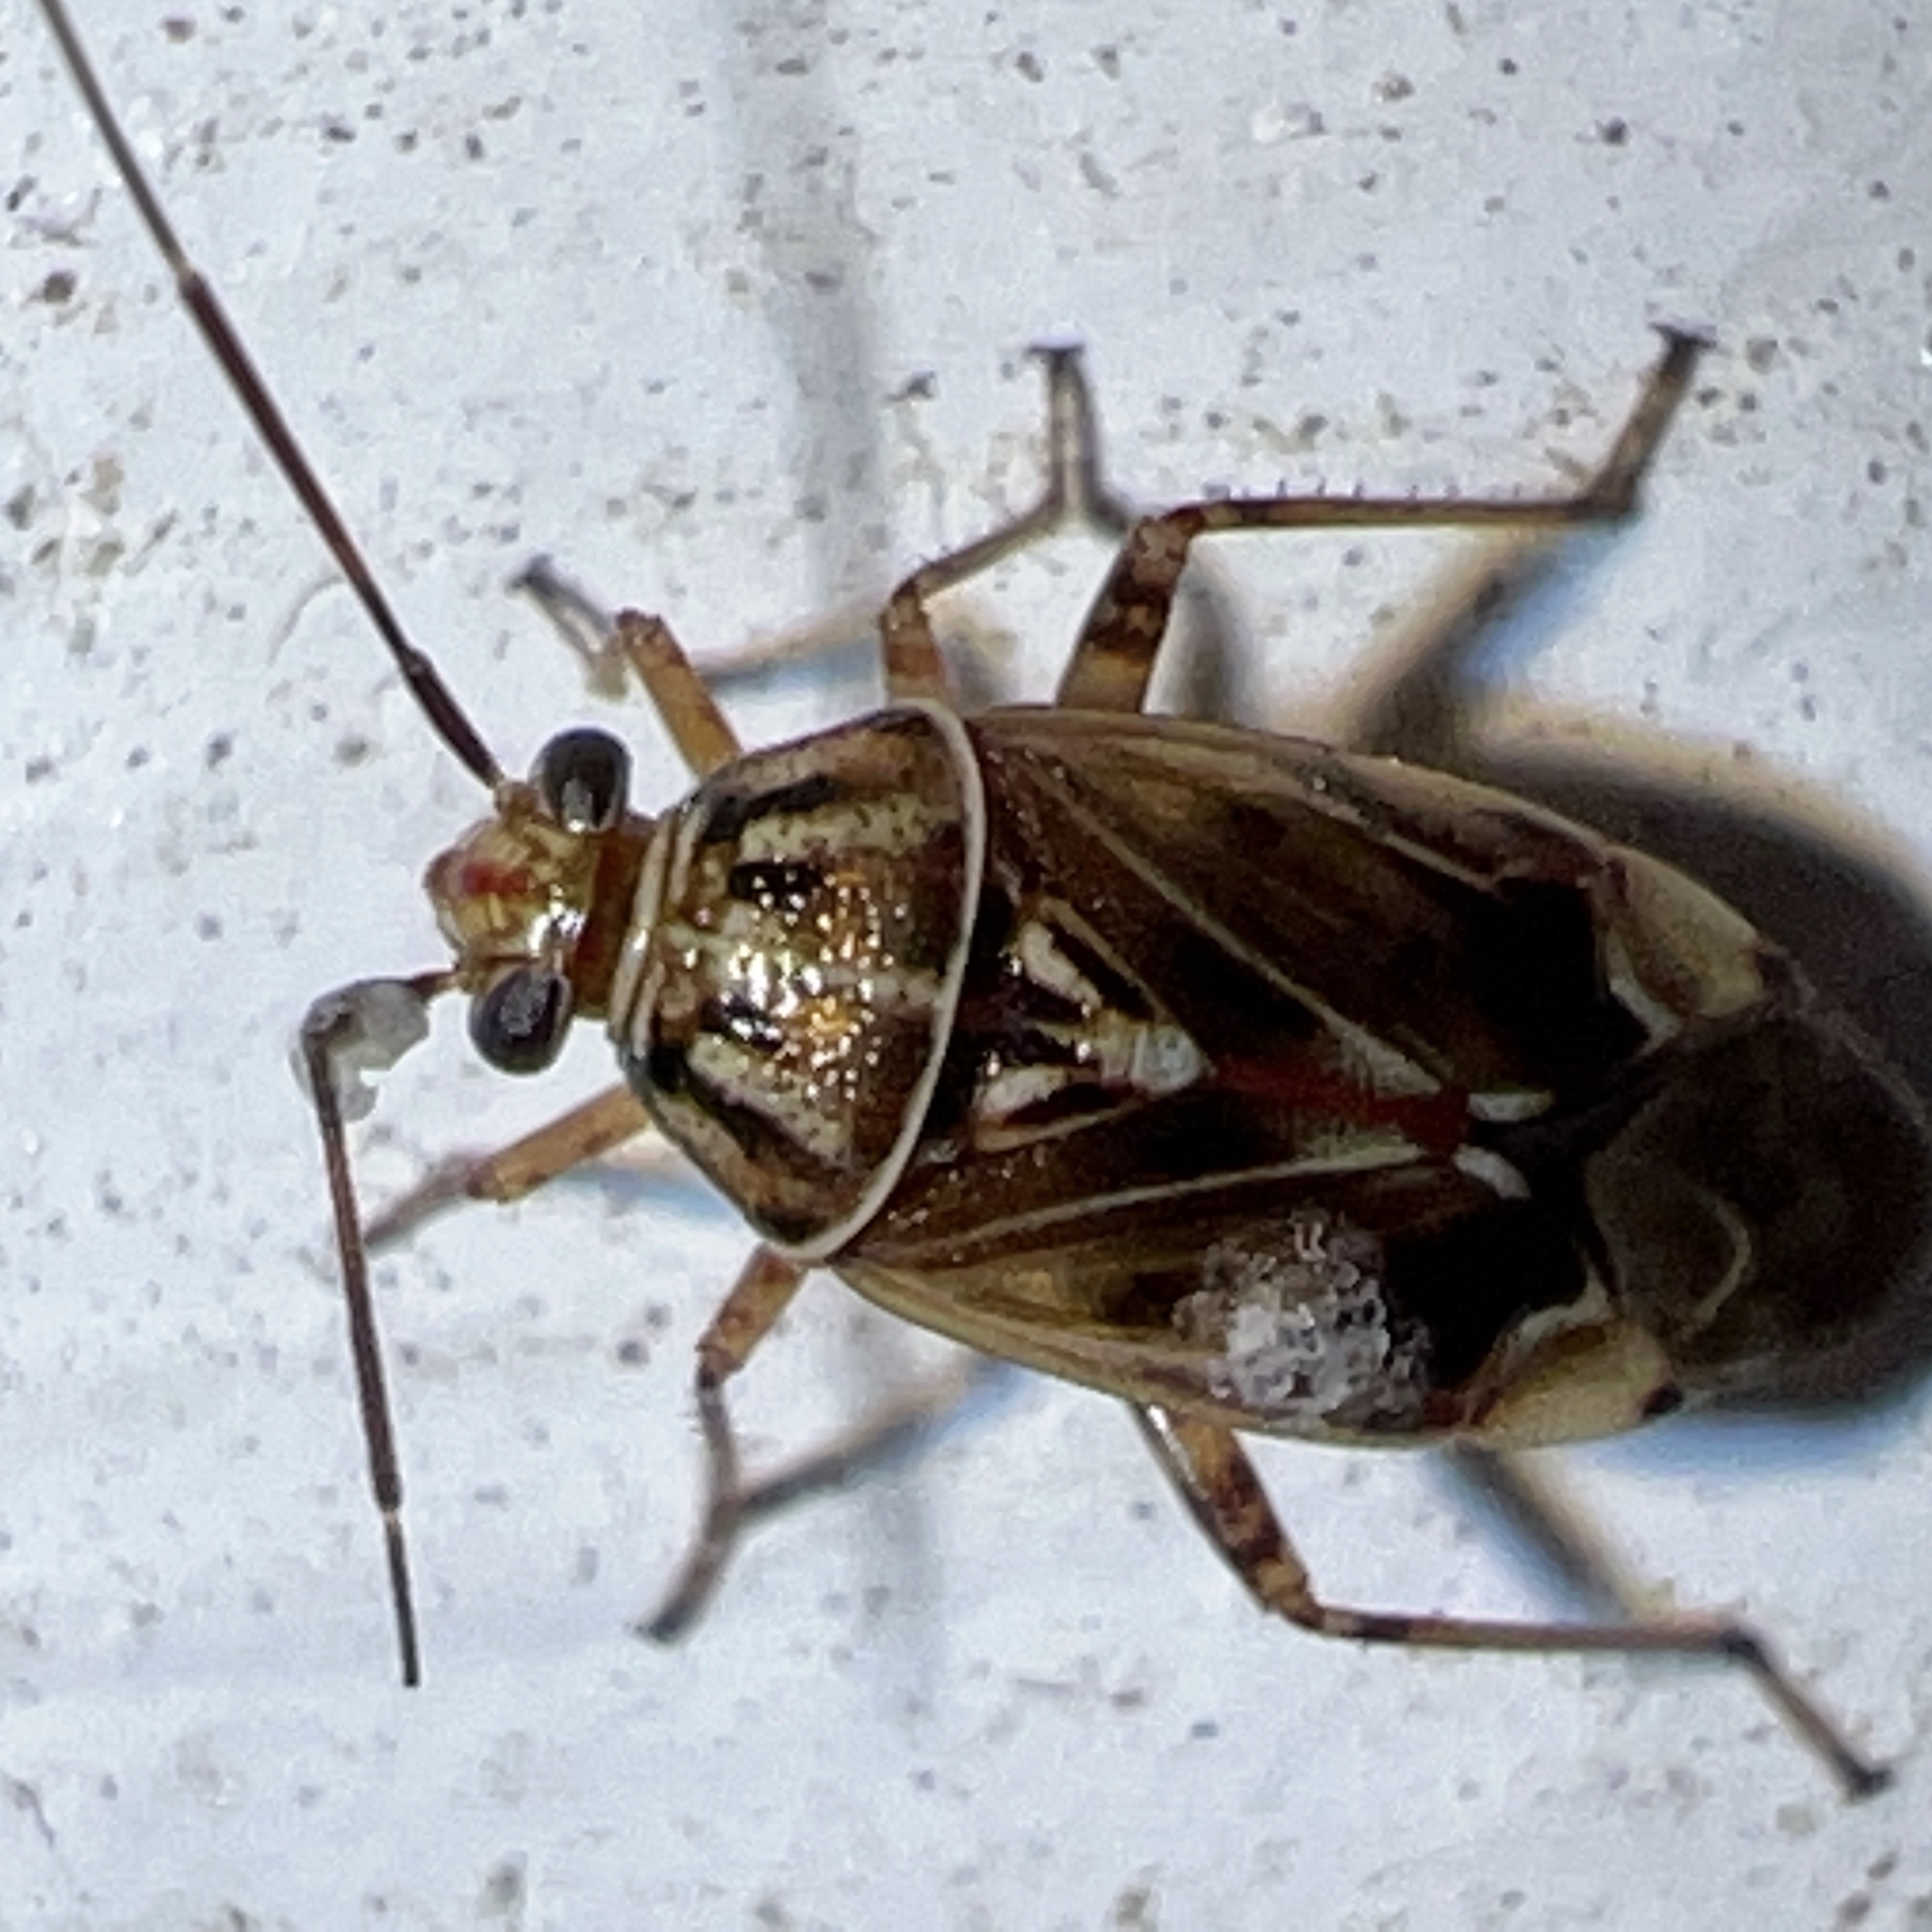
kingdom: Animalia
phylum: Arthropoda
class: Insecta
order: Hemiptera
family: Miridae
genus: Lygus
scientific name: Lygus lineolaris
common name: North american tarnished plant bug
